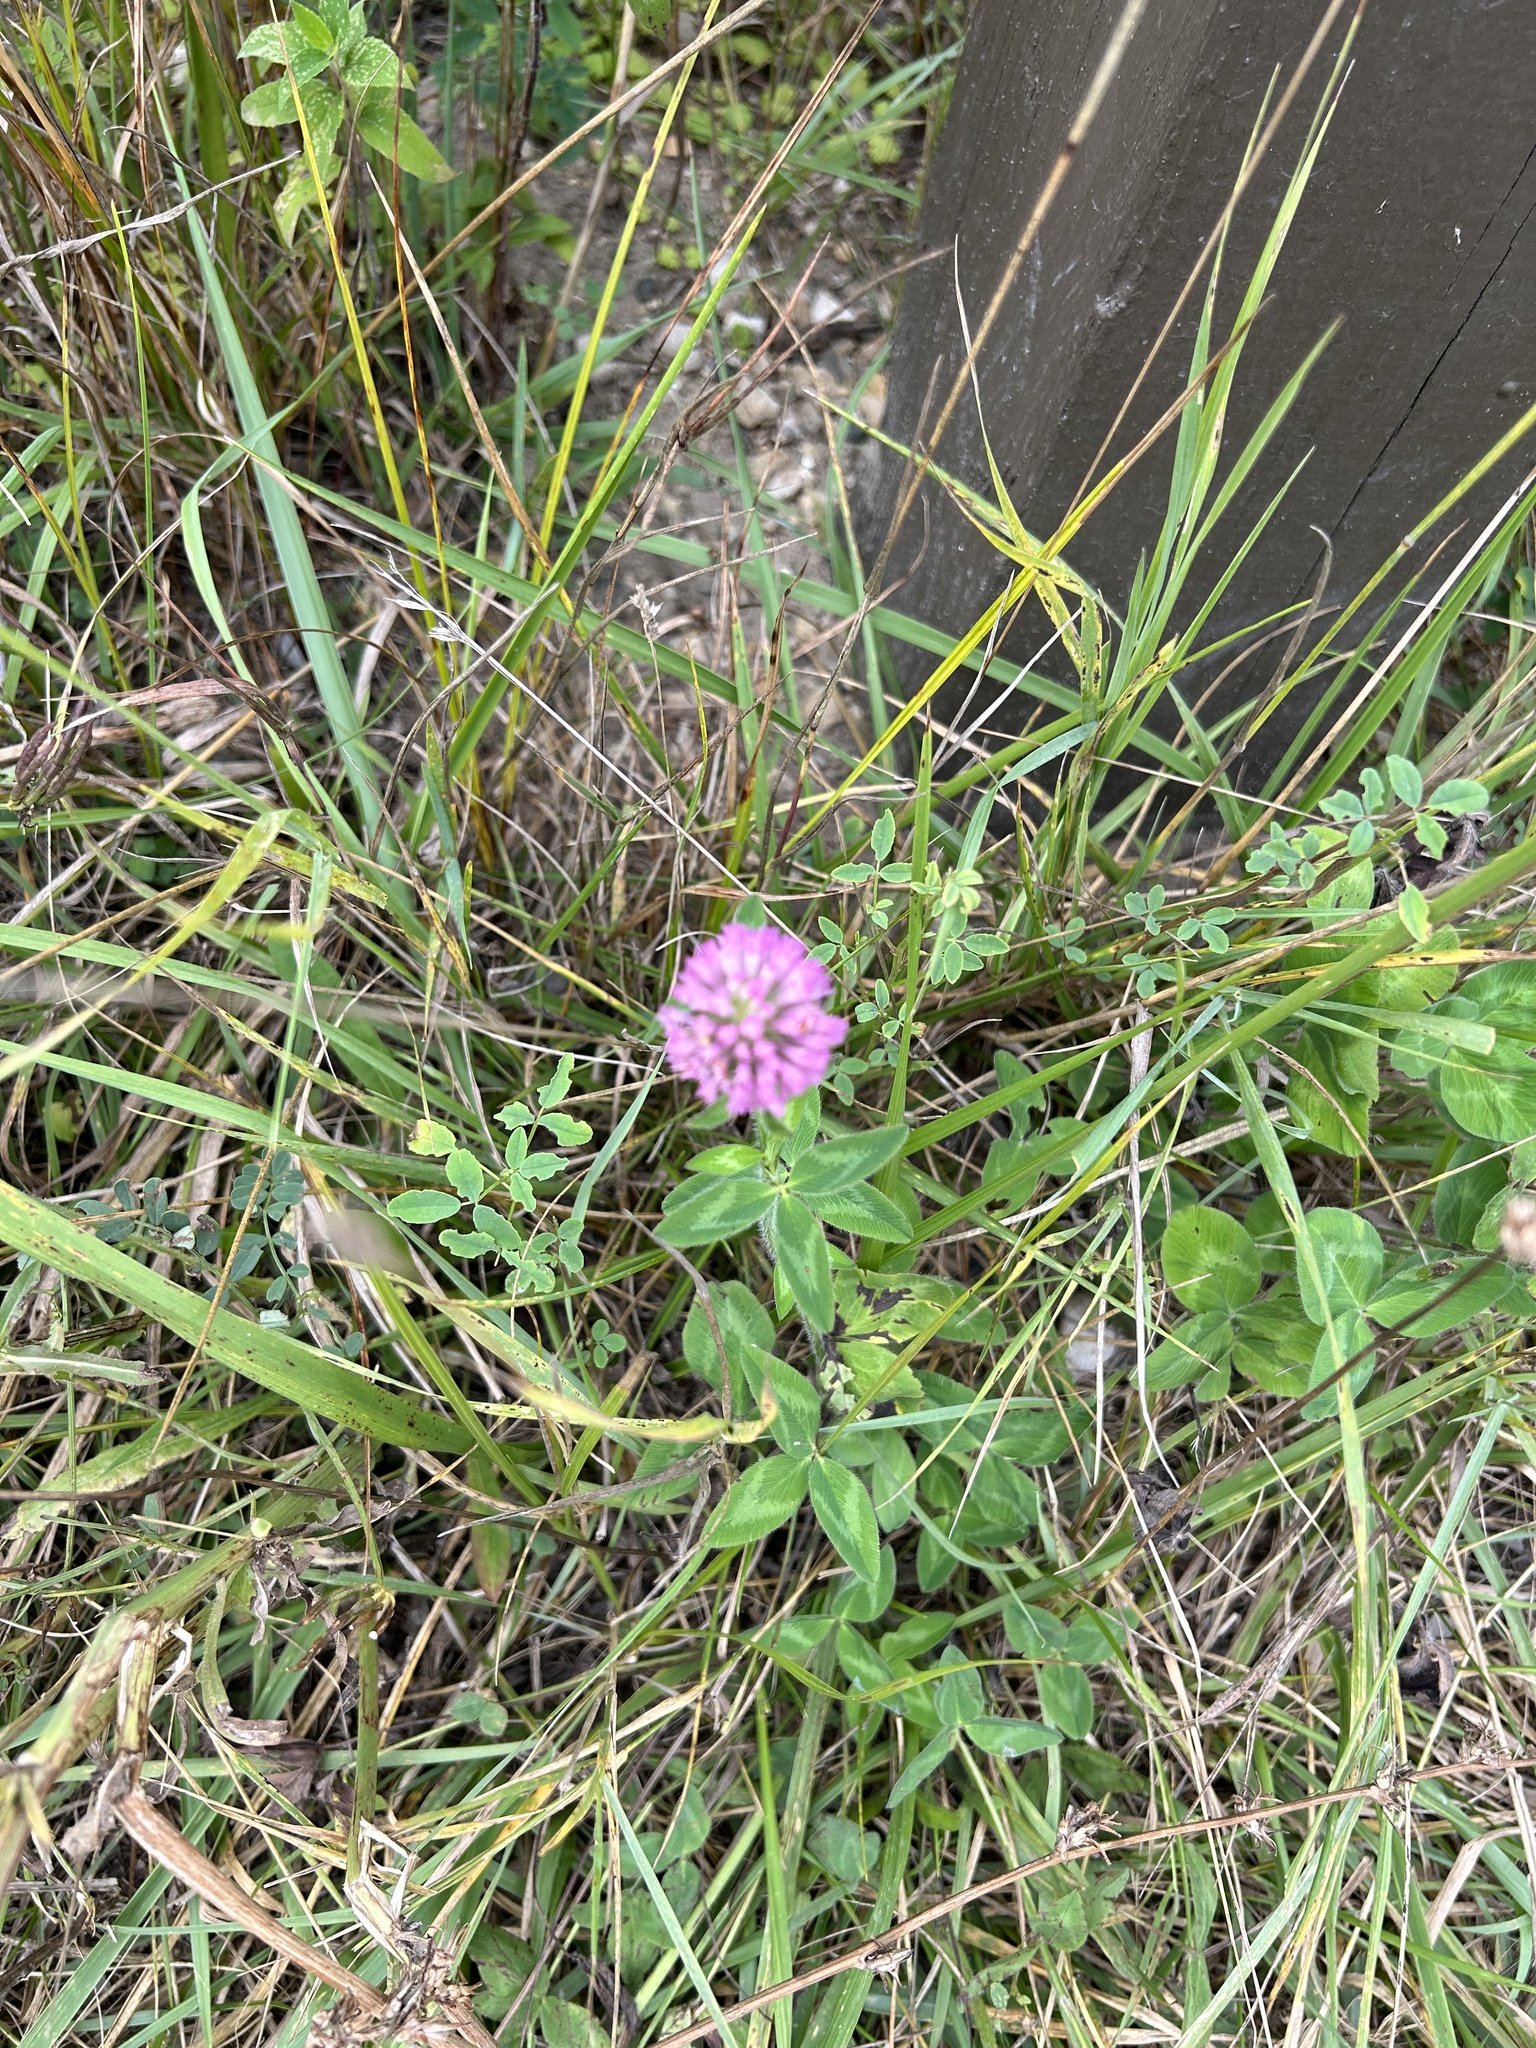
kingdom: Plantae
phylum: Tracheophyta
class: Magnoliopsida
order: Fabales
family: Fabaceae
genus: Trifolium
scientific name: Trifolium pratense
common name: Red clover
